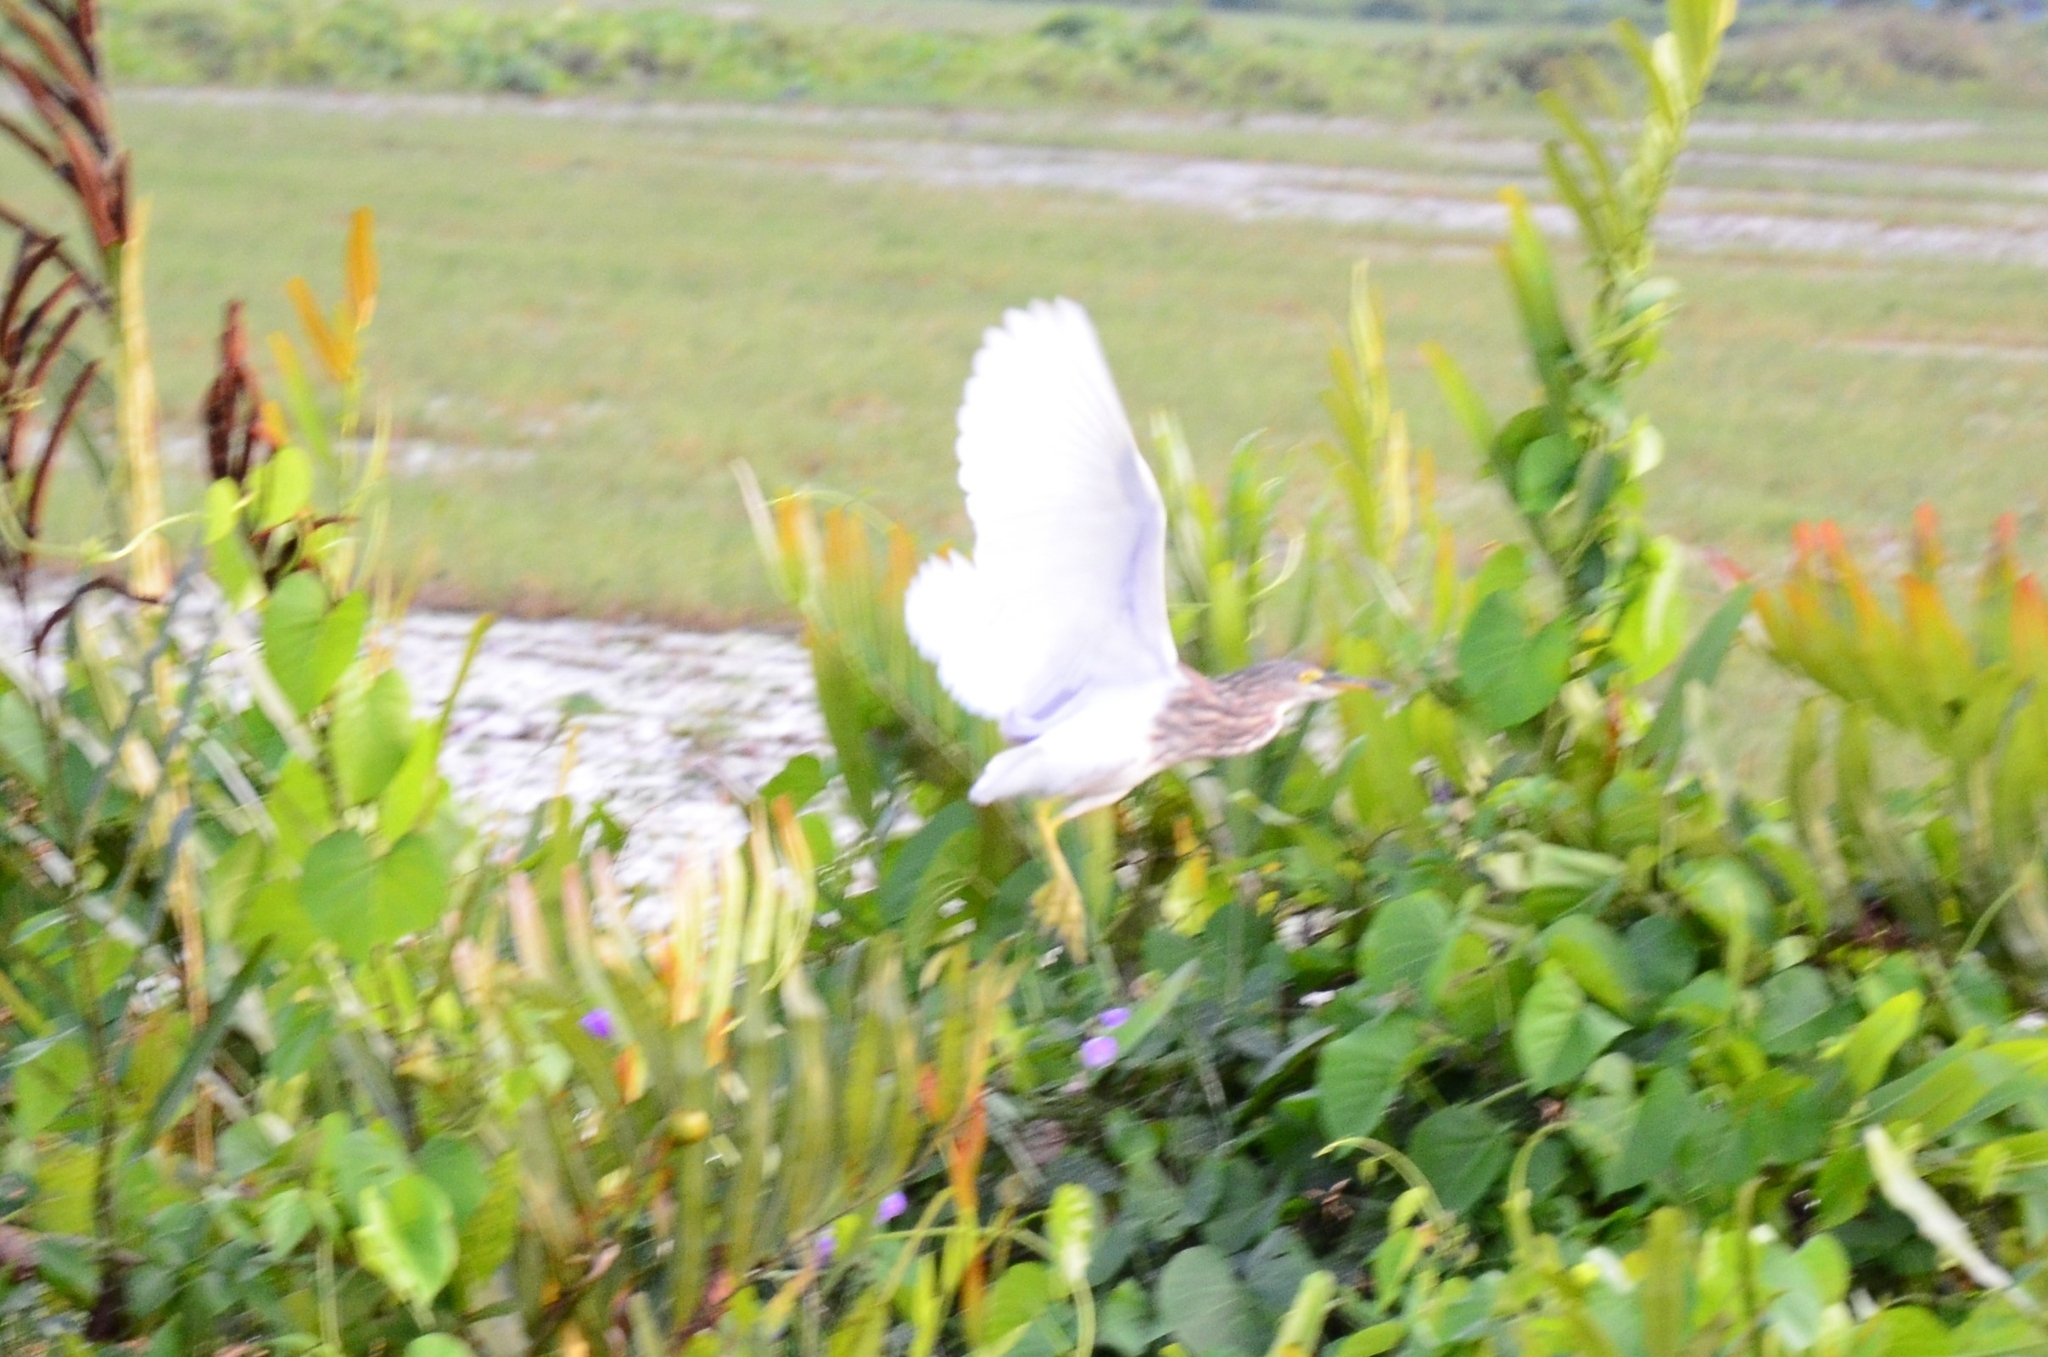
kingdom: Animalia
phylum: Chordata
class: Aves
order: Pelecaniformes
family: Ardeidae
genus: Ardeola
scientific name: Ardeola grayii
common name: Indian pond heron
